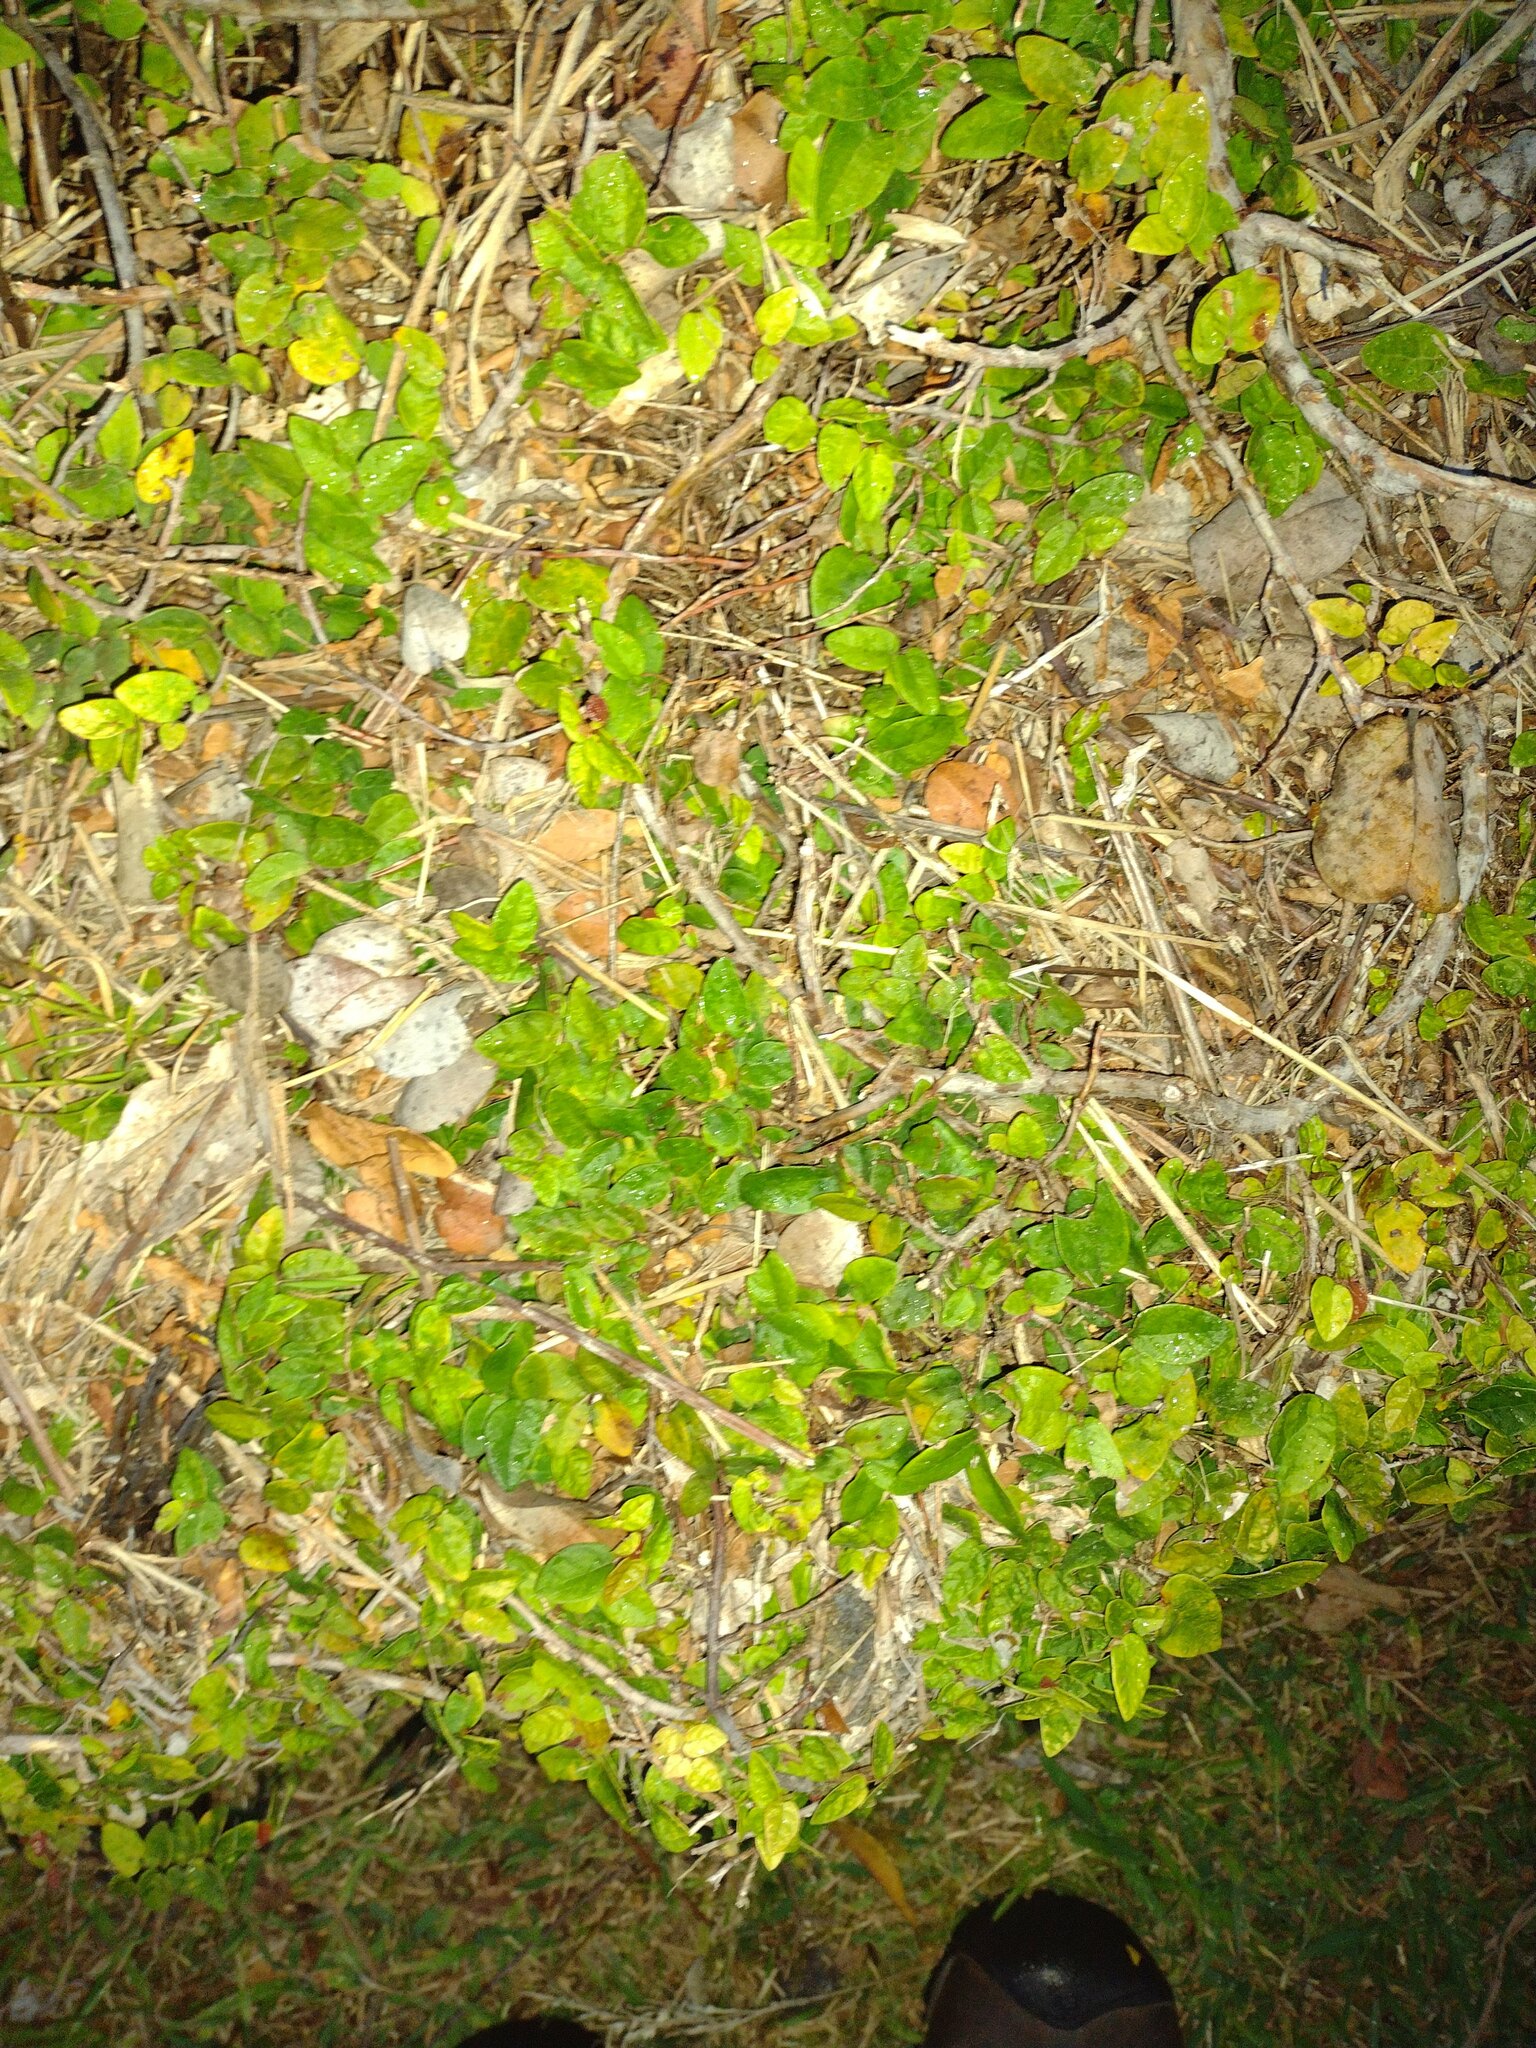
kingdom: Plantae
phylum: Tracheophyta
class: Magnoliopsida
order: Rosales
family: Moraceae
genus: Ficus
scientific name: Ficus pumila
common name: Climbingfig
